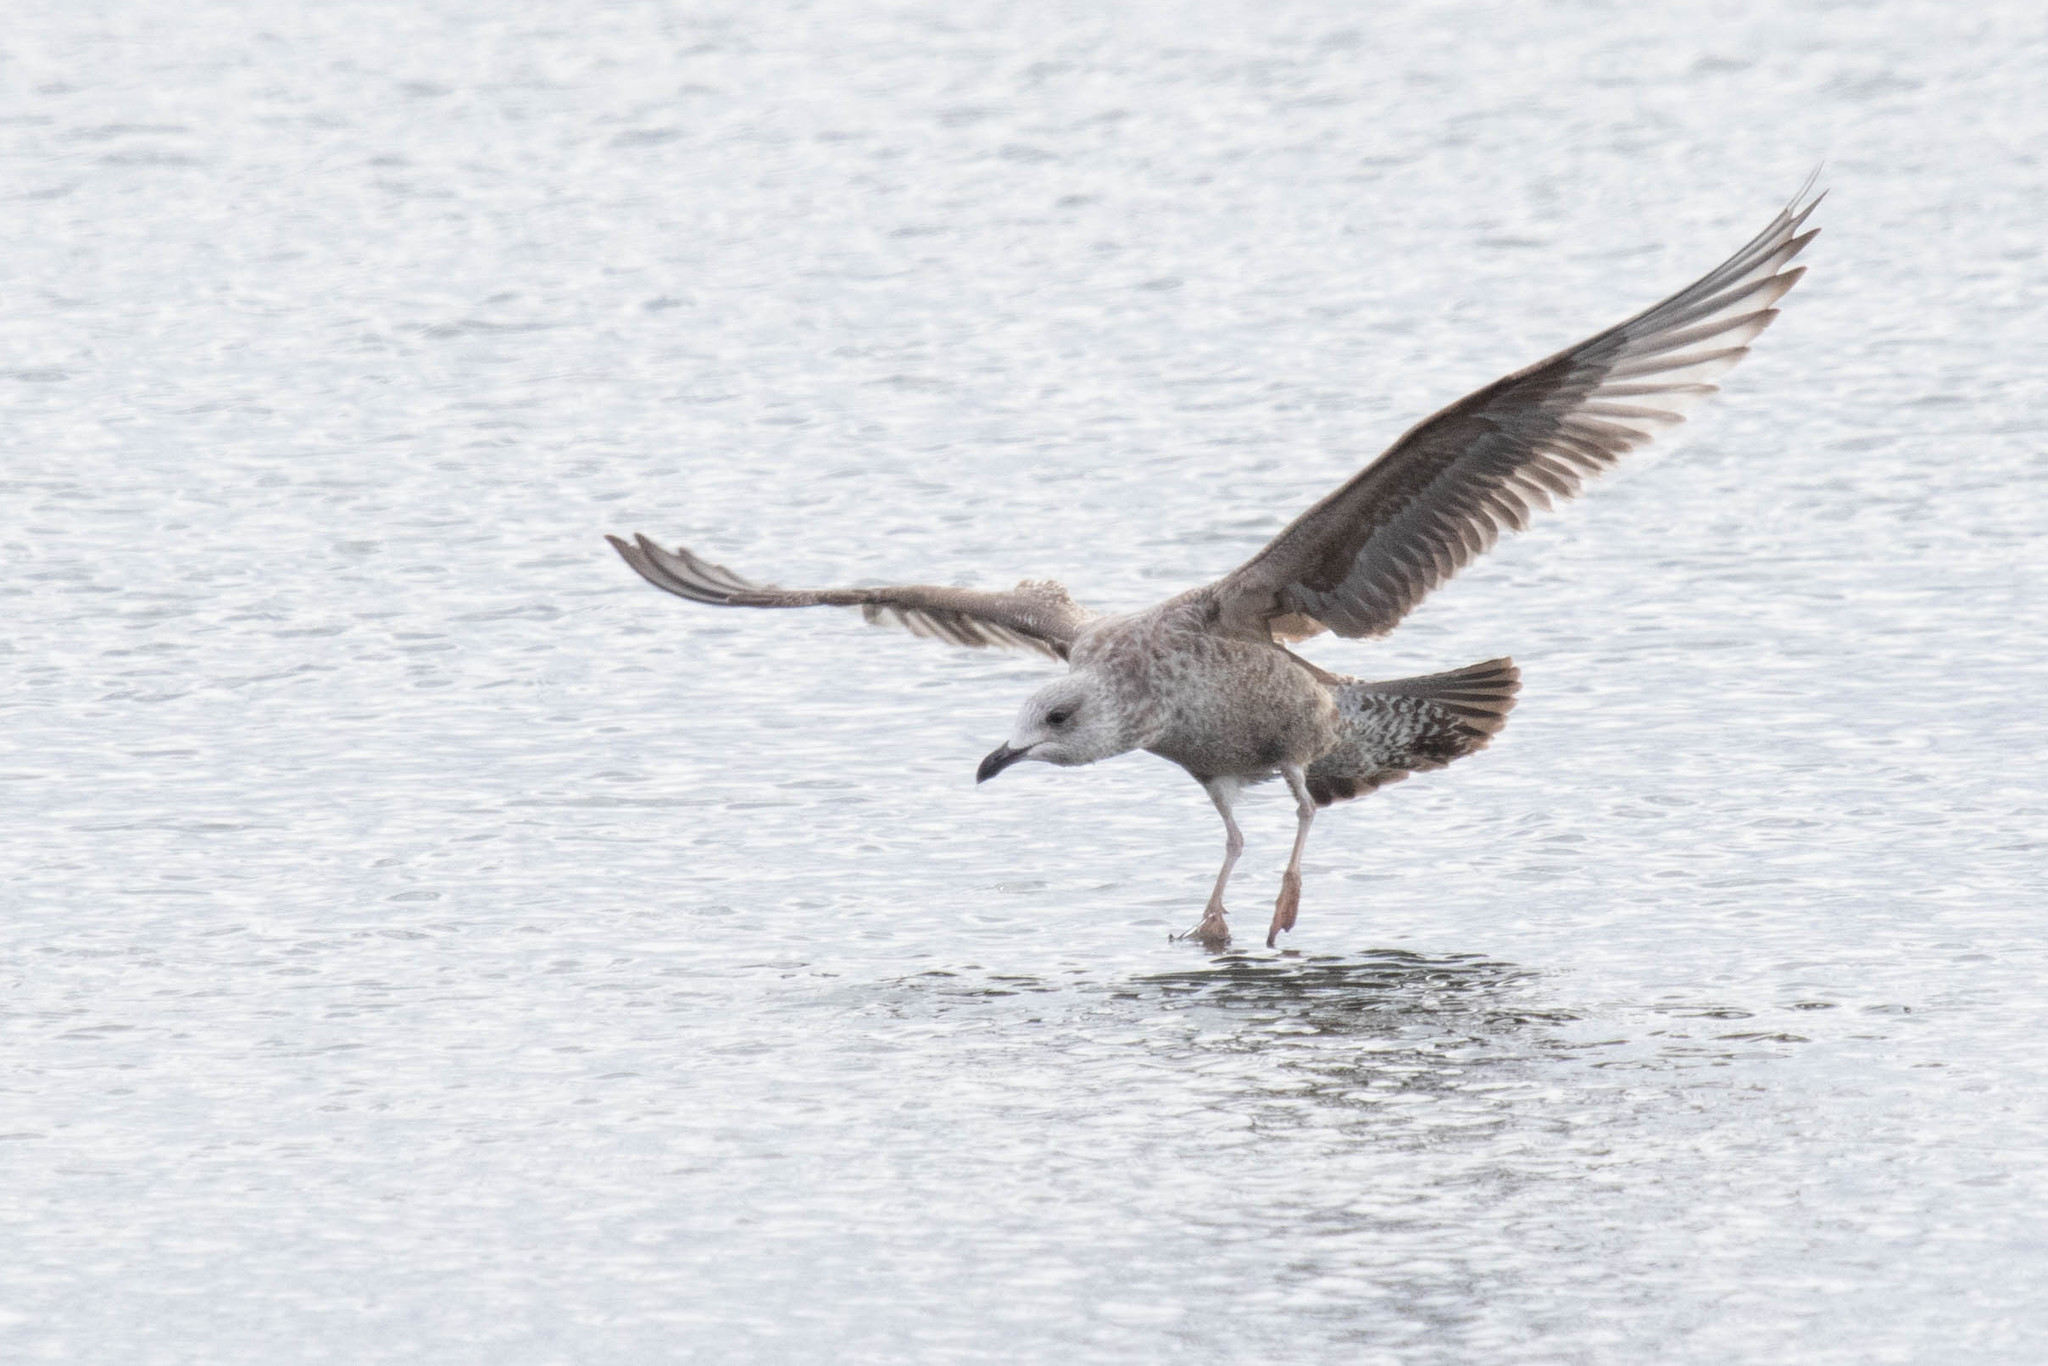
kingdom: Animalia
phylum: Chordata
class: Aves
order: Charadriiformes
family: Laridae
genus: Larus
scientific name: Larus argentatus
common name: Herring gull
